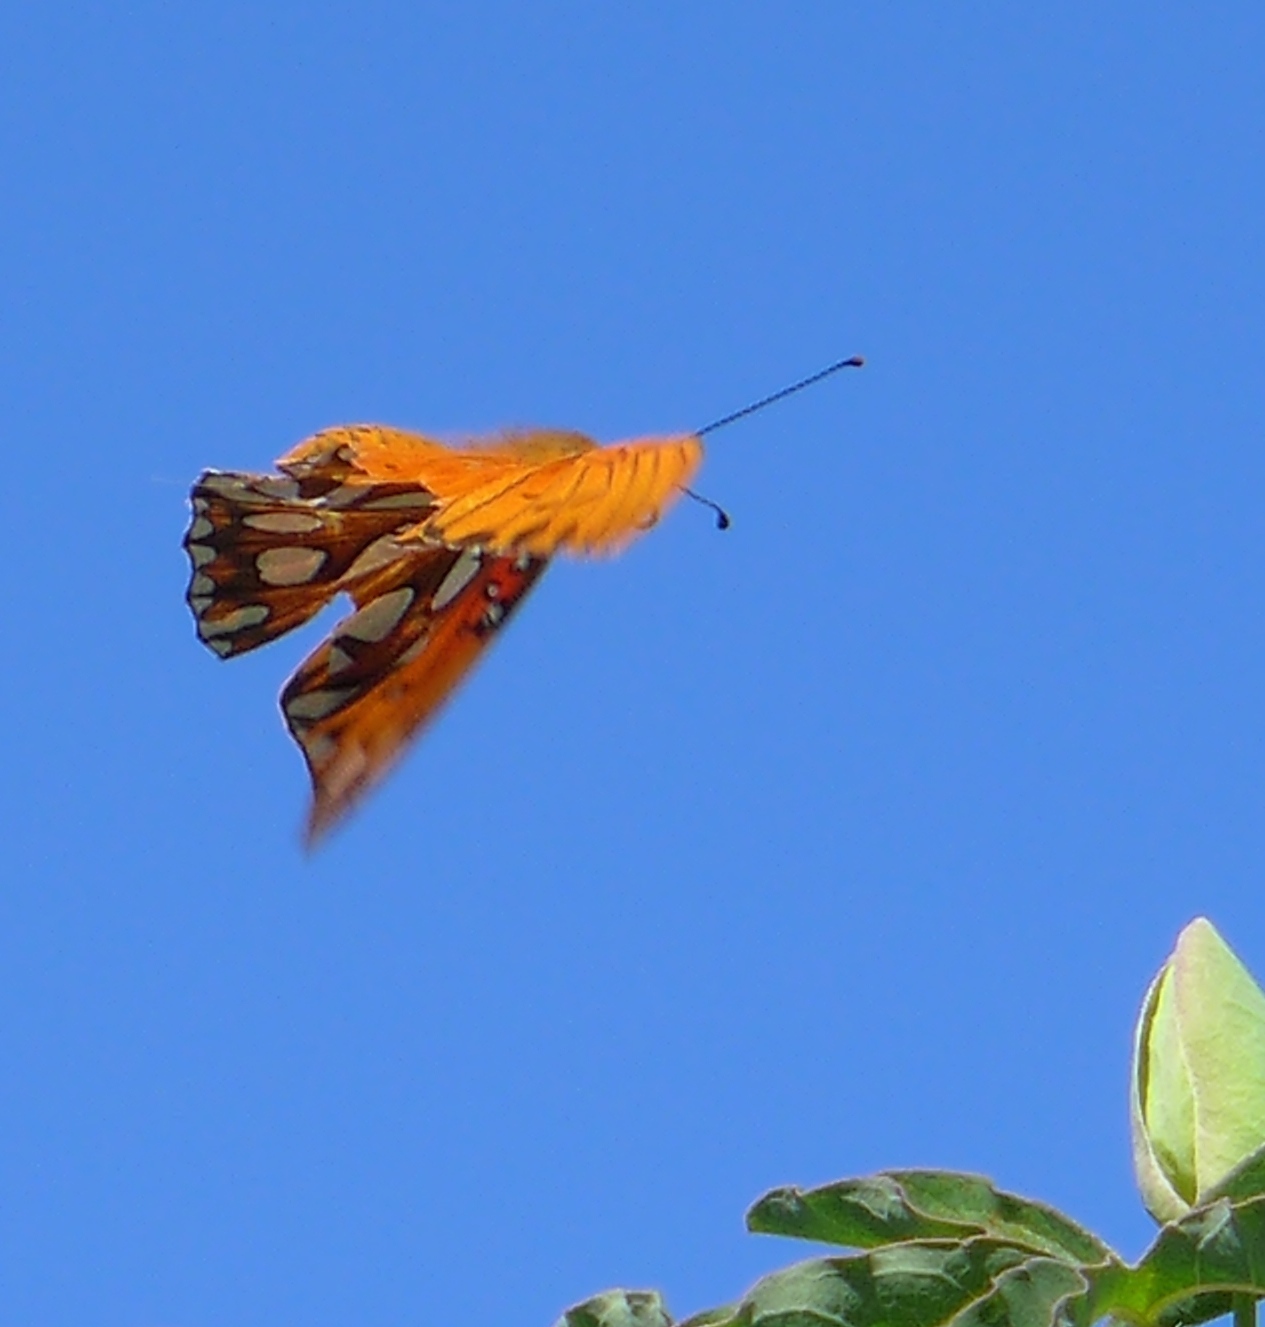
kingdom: Animalia
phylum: Arthropoda
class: Insecta
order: Lepidoptera
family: Nymphalidae
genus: Dione
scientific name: Dione vanillae
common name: Gulf fritillary
